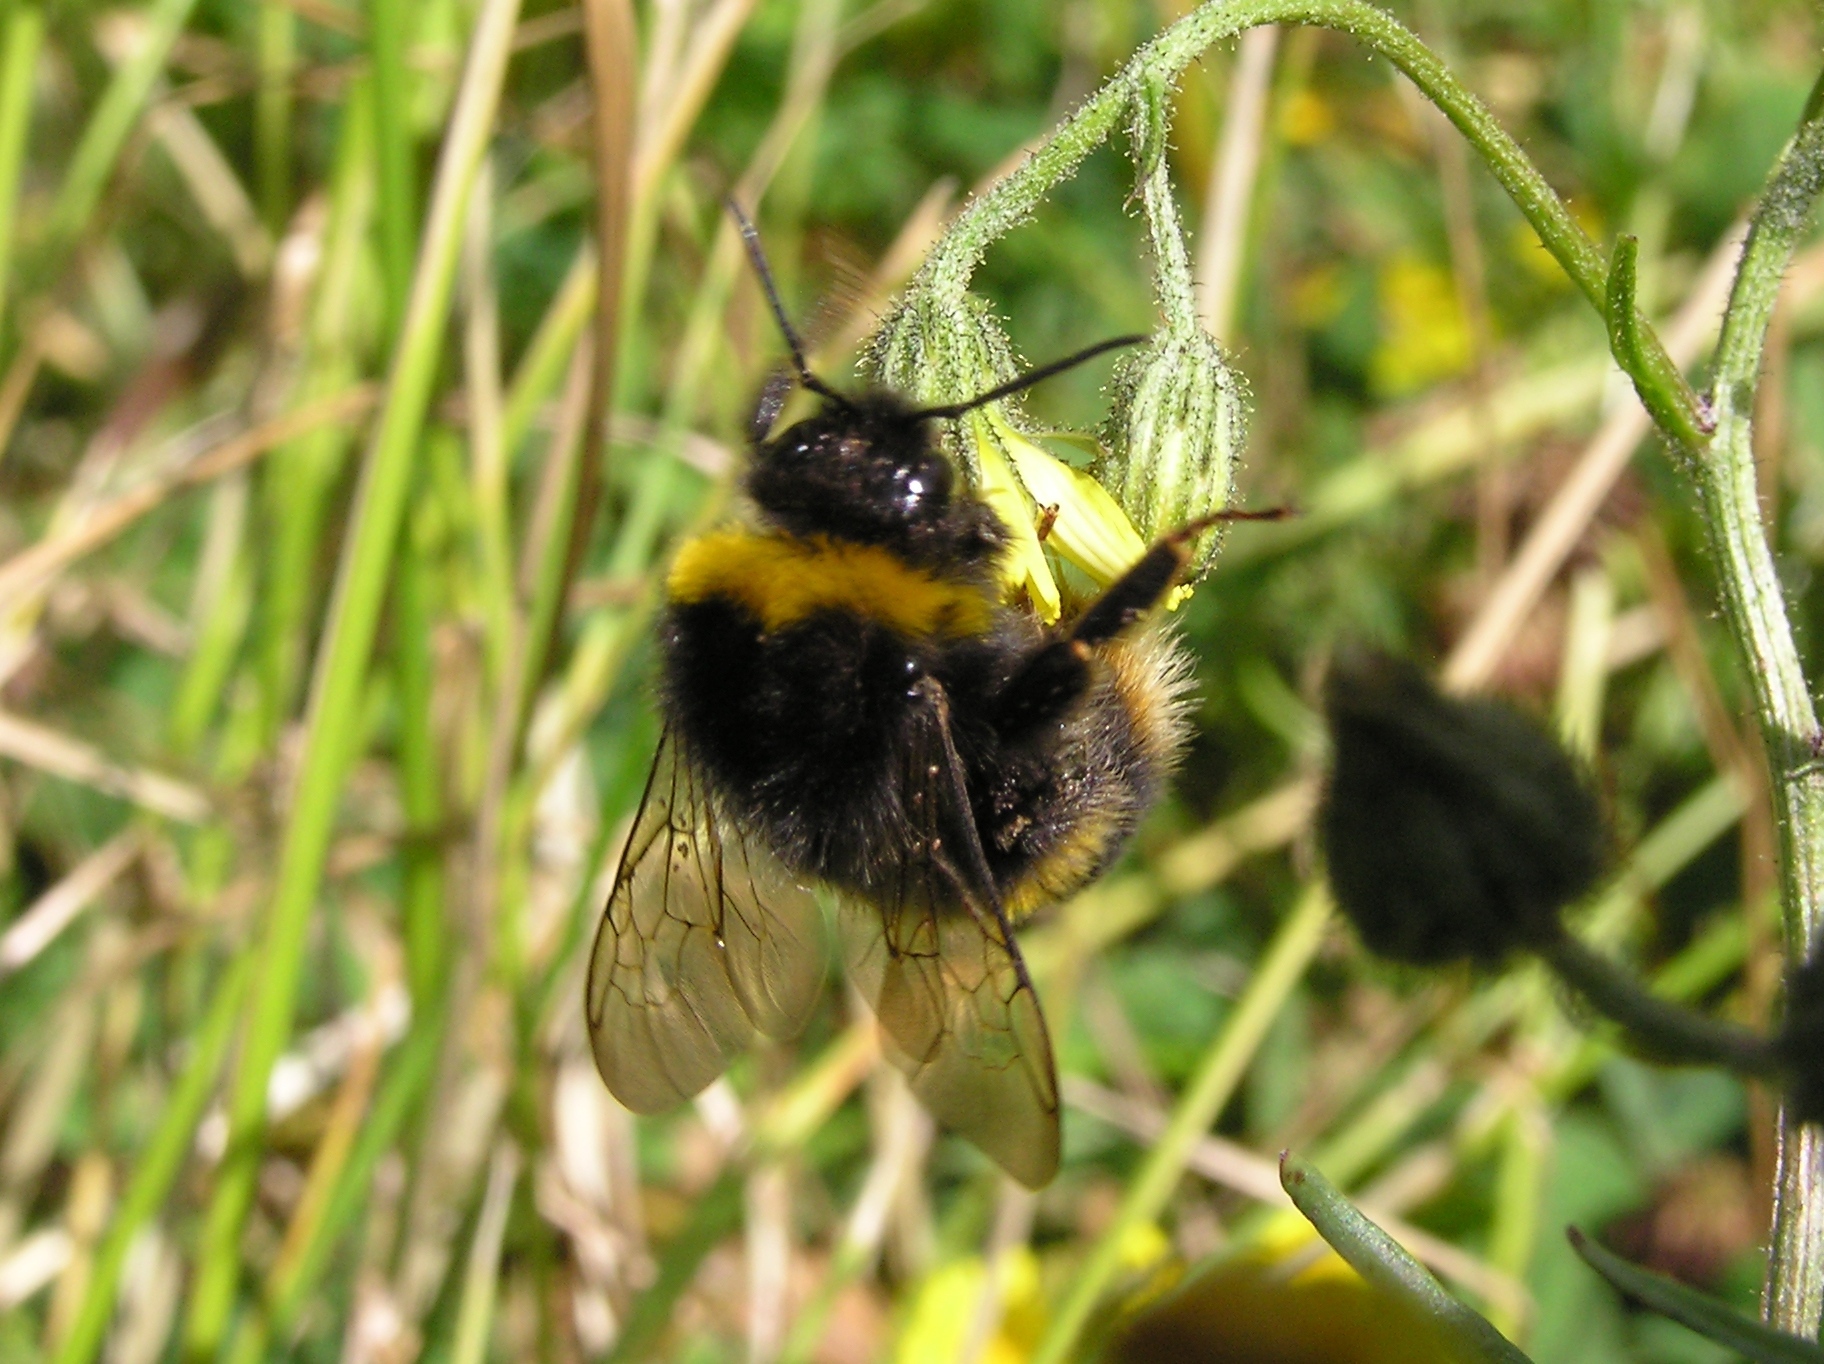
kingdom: Animalia
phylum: Arthropoda
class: Insecta
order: Hymenoptera
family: Apidae
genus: Bombus
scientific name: Bombus terrestris
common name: Buff-tailed bumblebee
